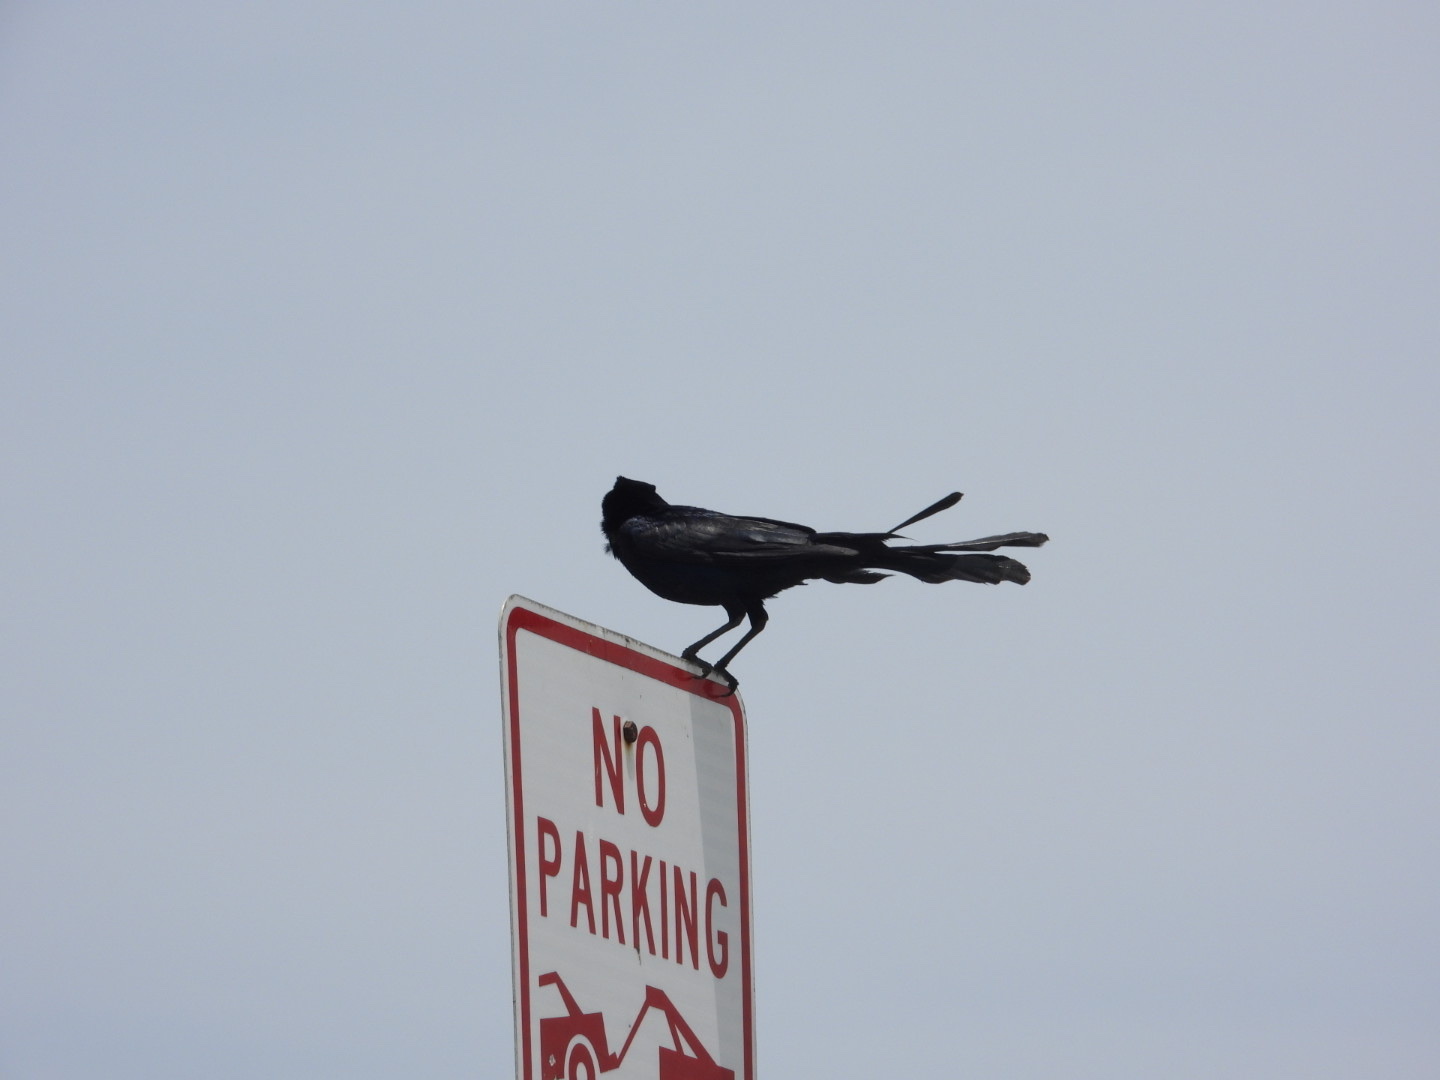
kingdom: Animalia
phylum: Chordata
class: Aves
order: Passeriformes
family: Icteridae
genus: Quiscalus
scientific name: Quiscalus mexicanus
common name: Great-tailed grackle
